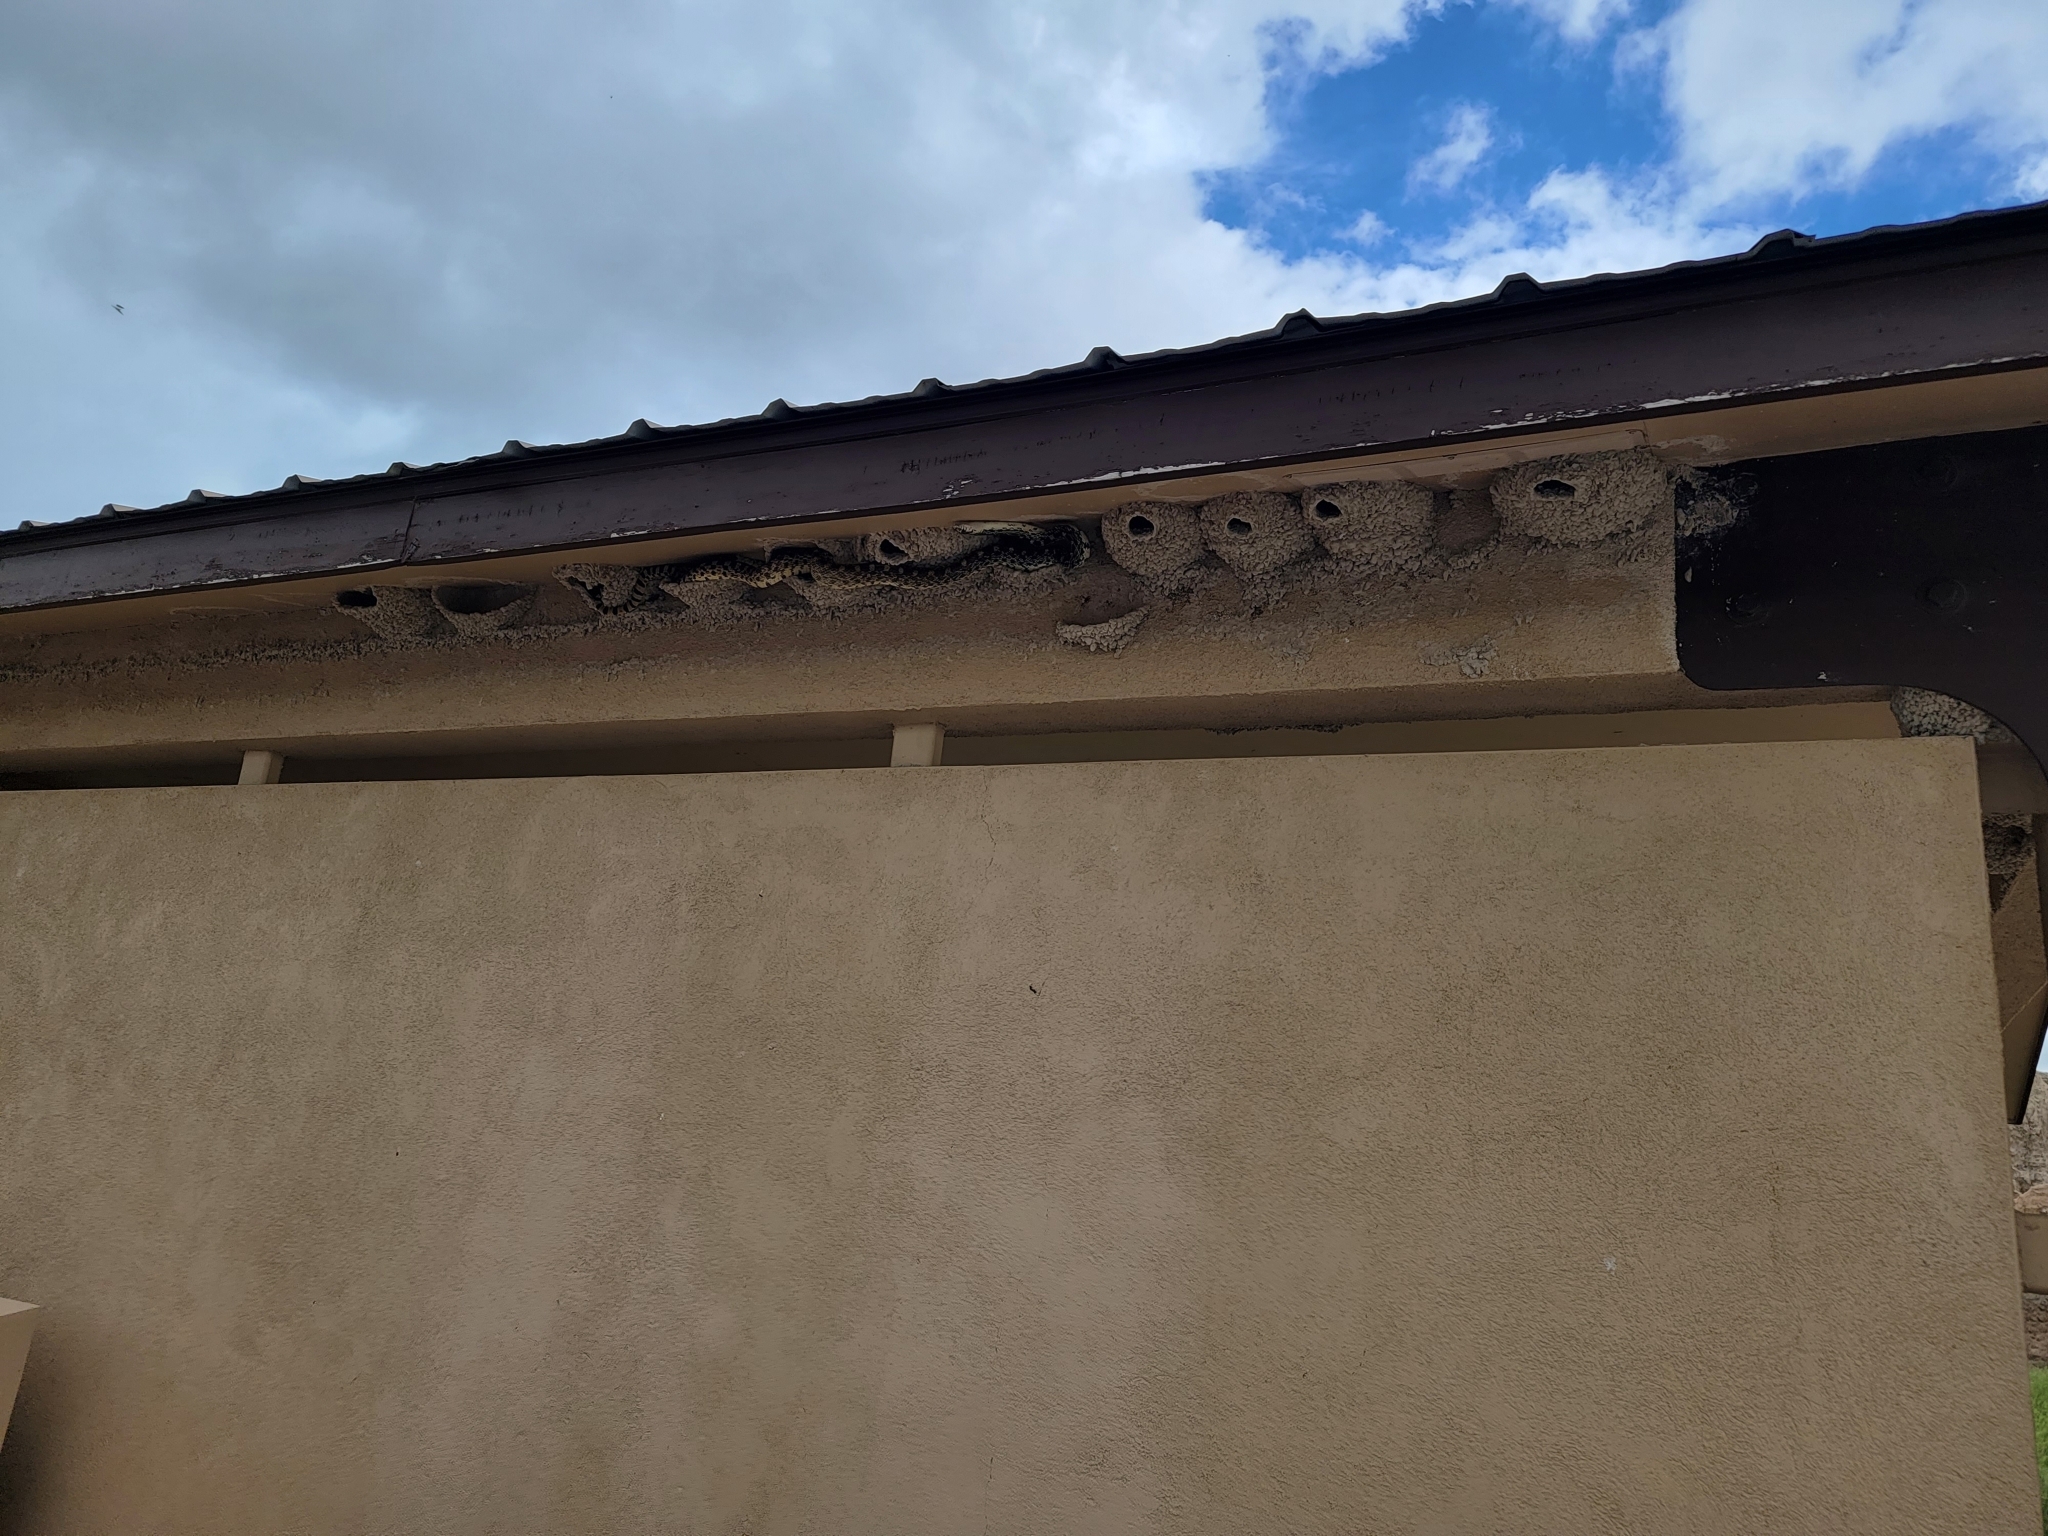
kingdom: Animalia
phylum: Chordata
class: Squamata
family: Colubridae
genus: Pituophis
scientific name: Pituophis catenifer
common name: Gopher snake
